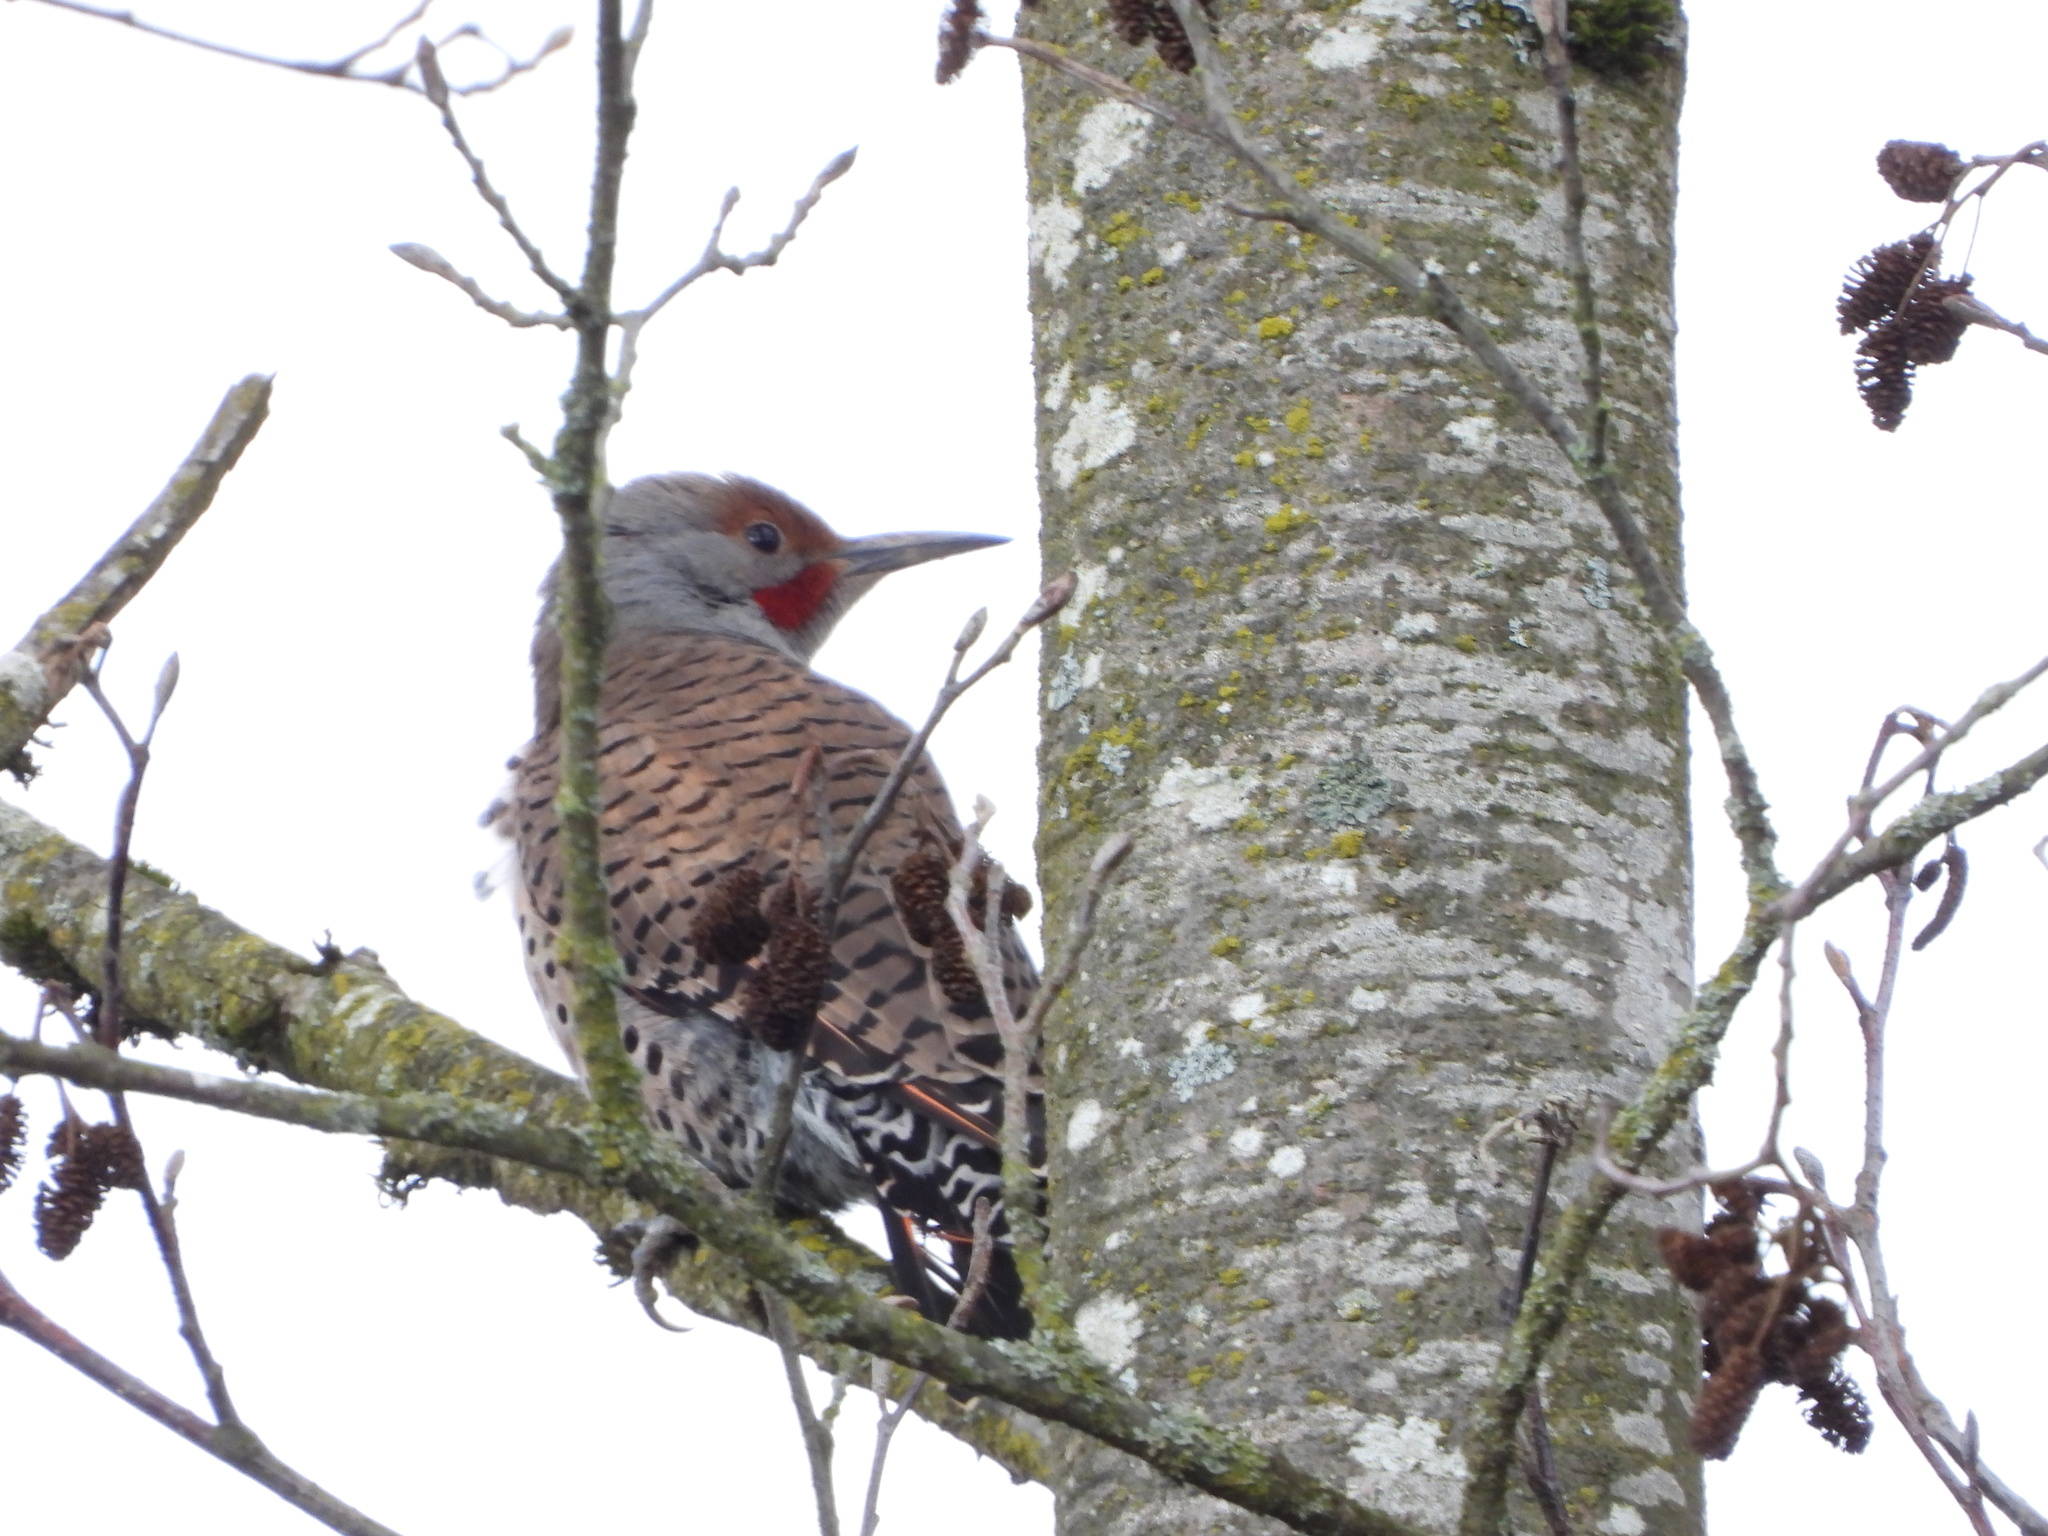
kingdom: Animalia
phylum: Chordata
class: Aves
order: Piciformes
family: Picidae
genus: Colaptes
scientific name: Colaptes auratus
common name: Northern flicker
